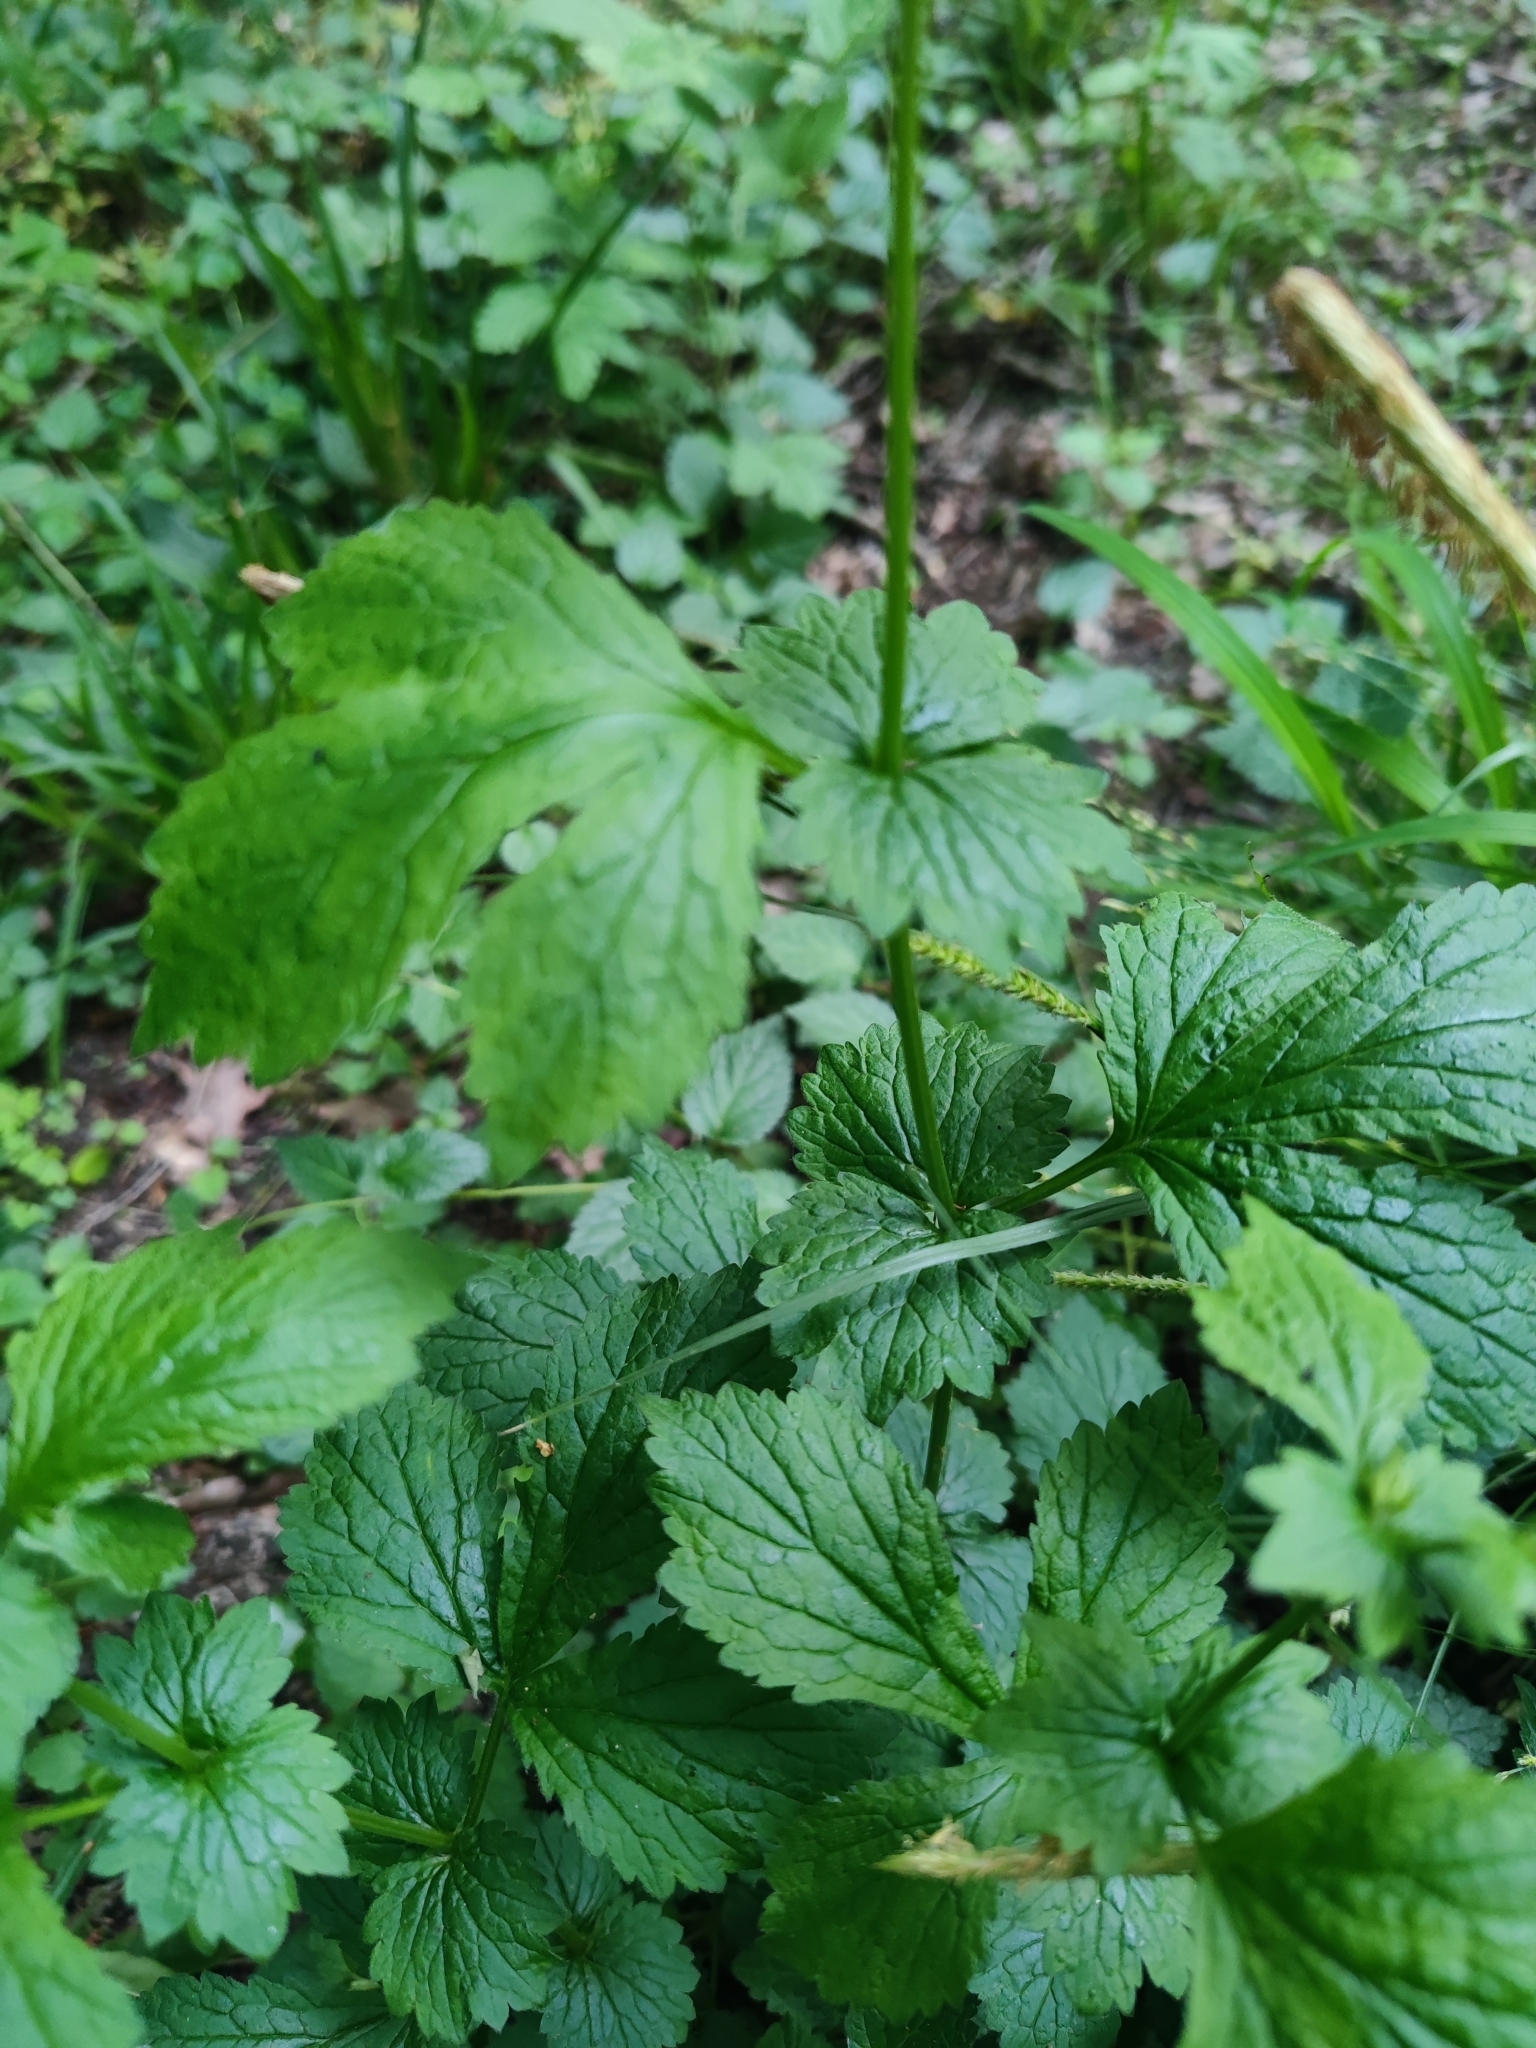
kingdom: Plantae
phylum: Tracheophyta
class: Magnoliopsida
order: Rosales
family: Rosaceae
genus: Geum
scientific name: Geum urbanum
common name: Wood avens
